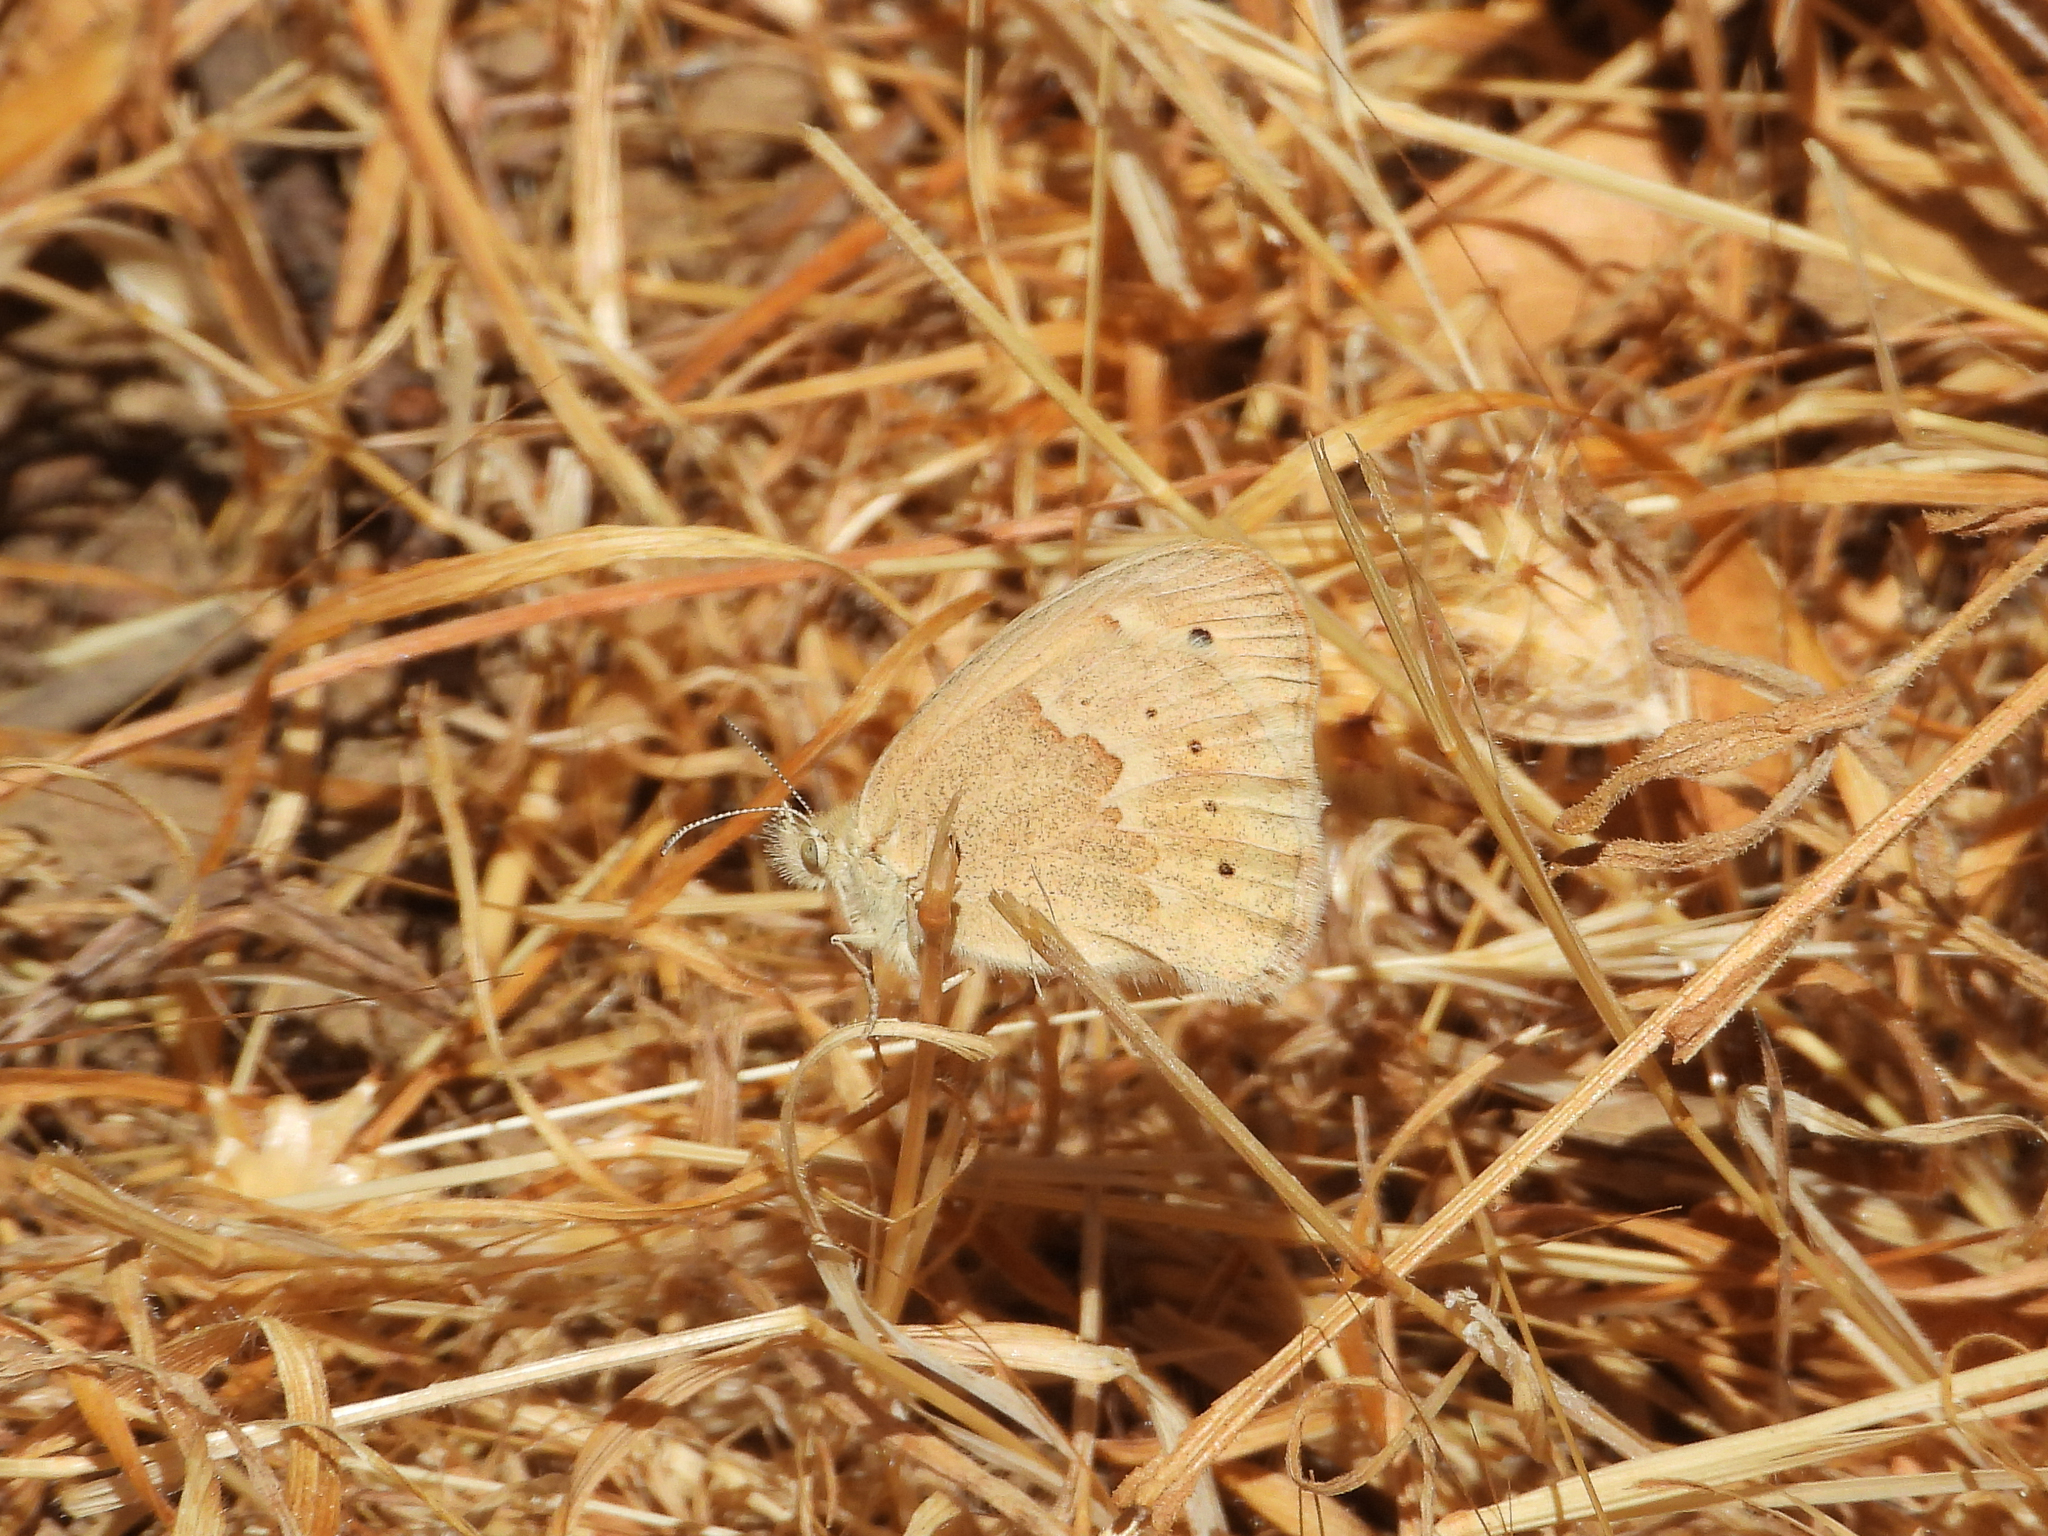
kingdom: Animalia
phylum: Arthropoda
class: Insecta
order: Lepidoptera
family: Nymphalidae
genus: Coenonympha
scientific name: Coenonympha california
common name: Common ringlet
